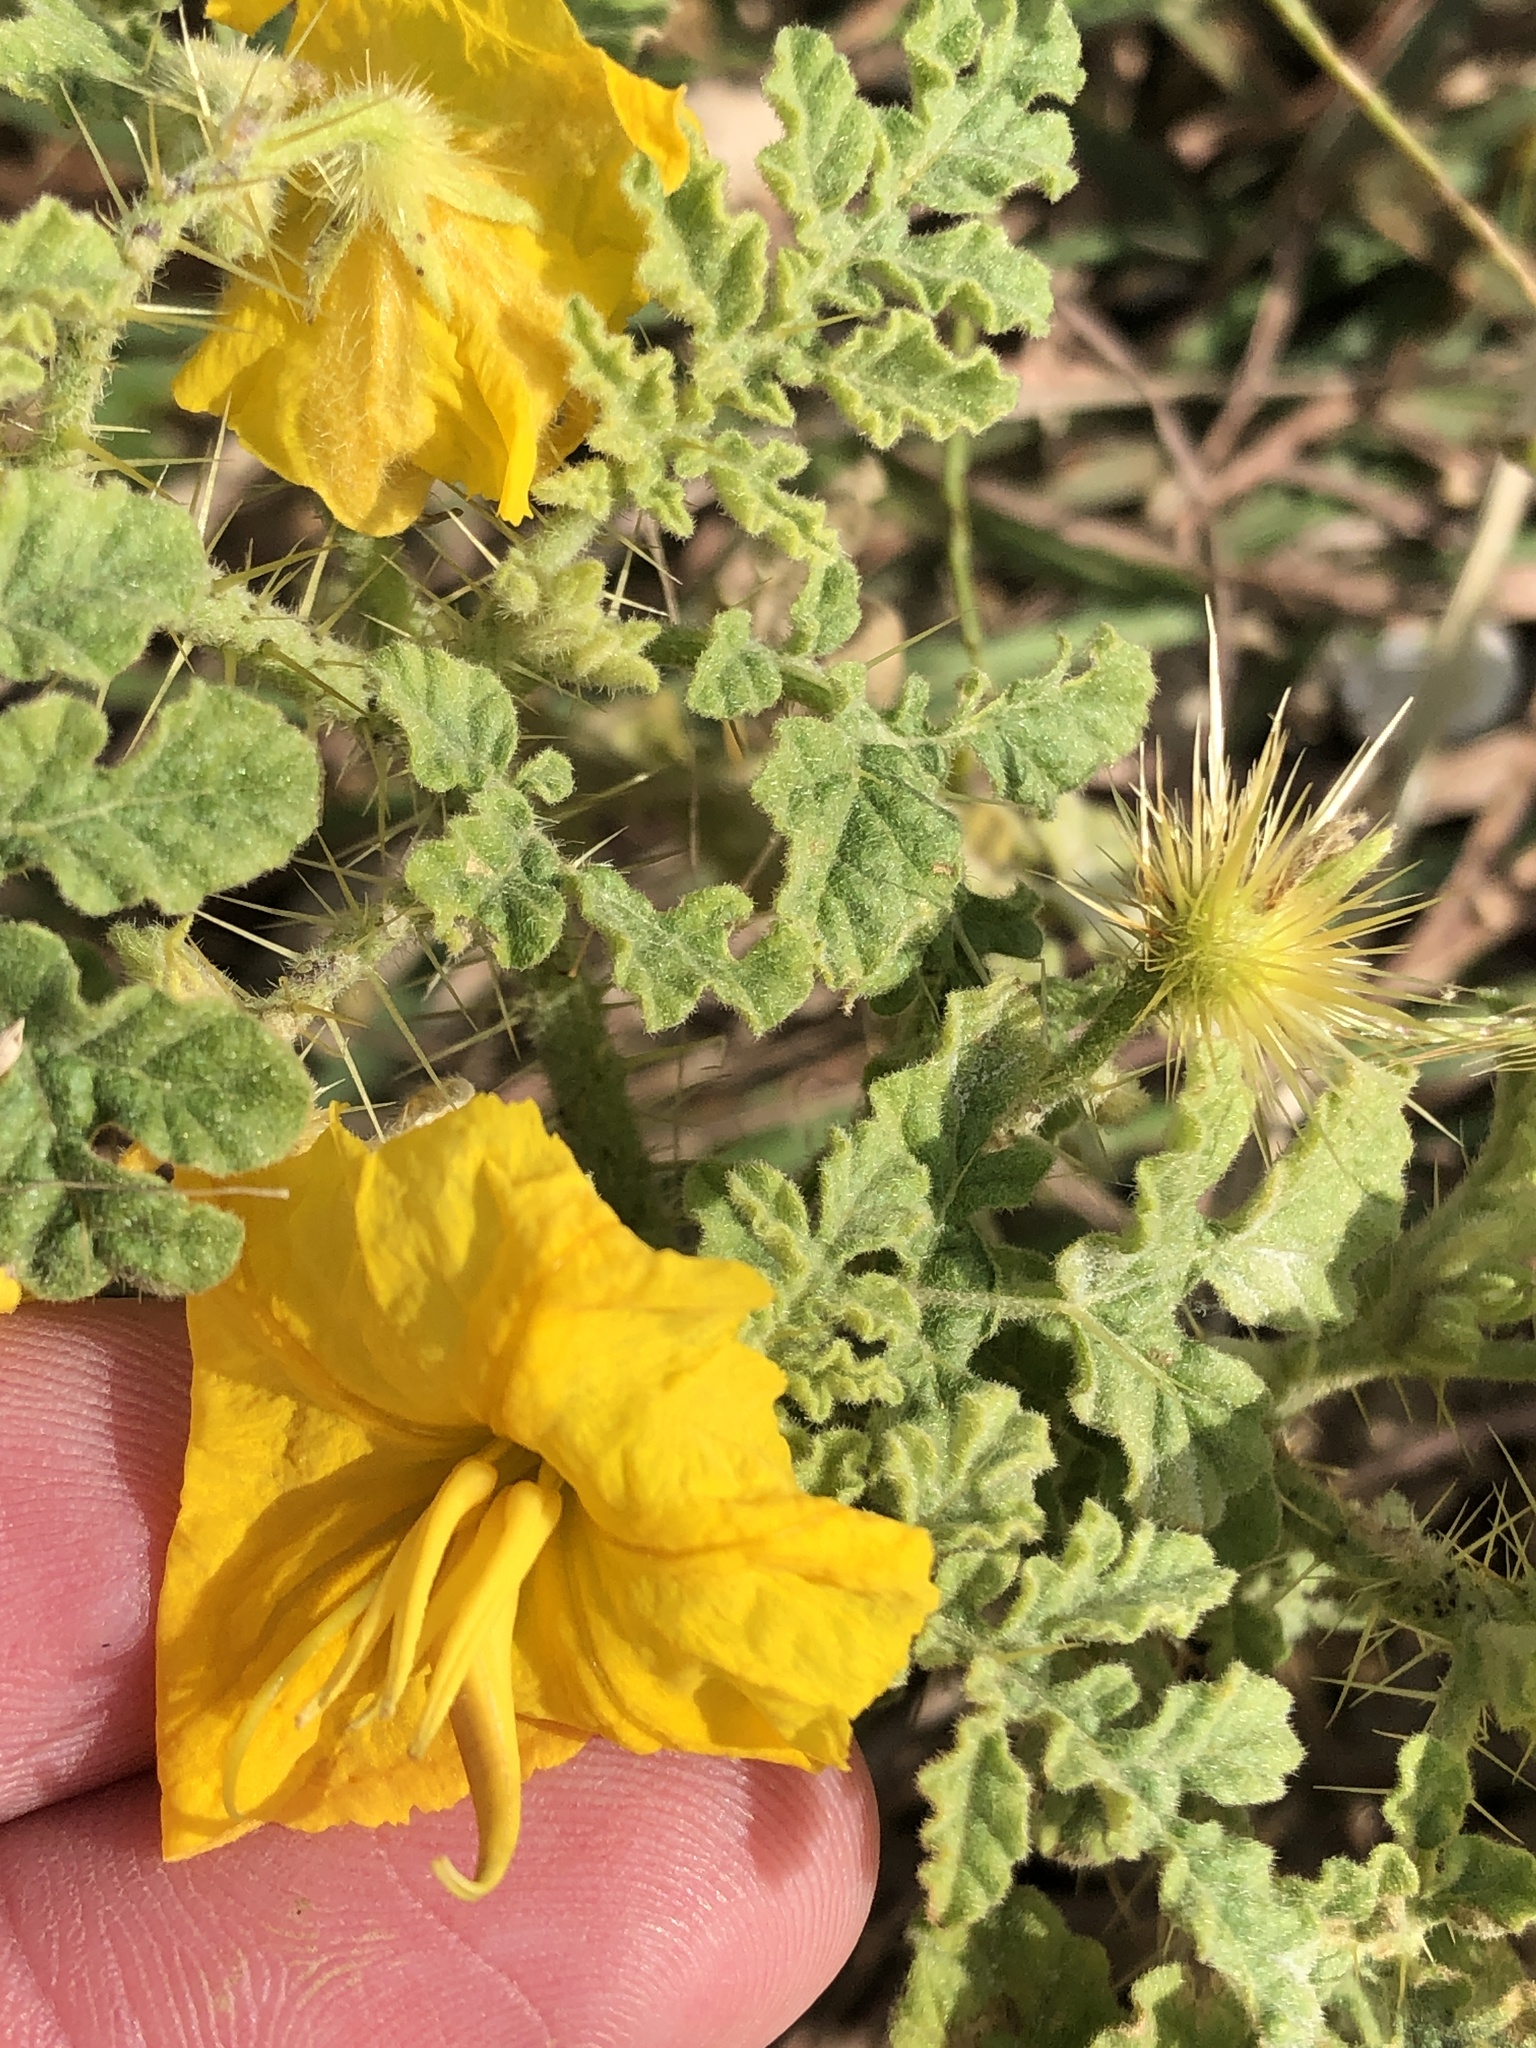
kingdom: Plantae
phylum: Tracheophyta
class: Magnoliopsida
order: Solanales
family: Solanaceae
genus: Solanum
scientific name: Solanum angustifolium
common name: Buffalobur nightshade
